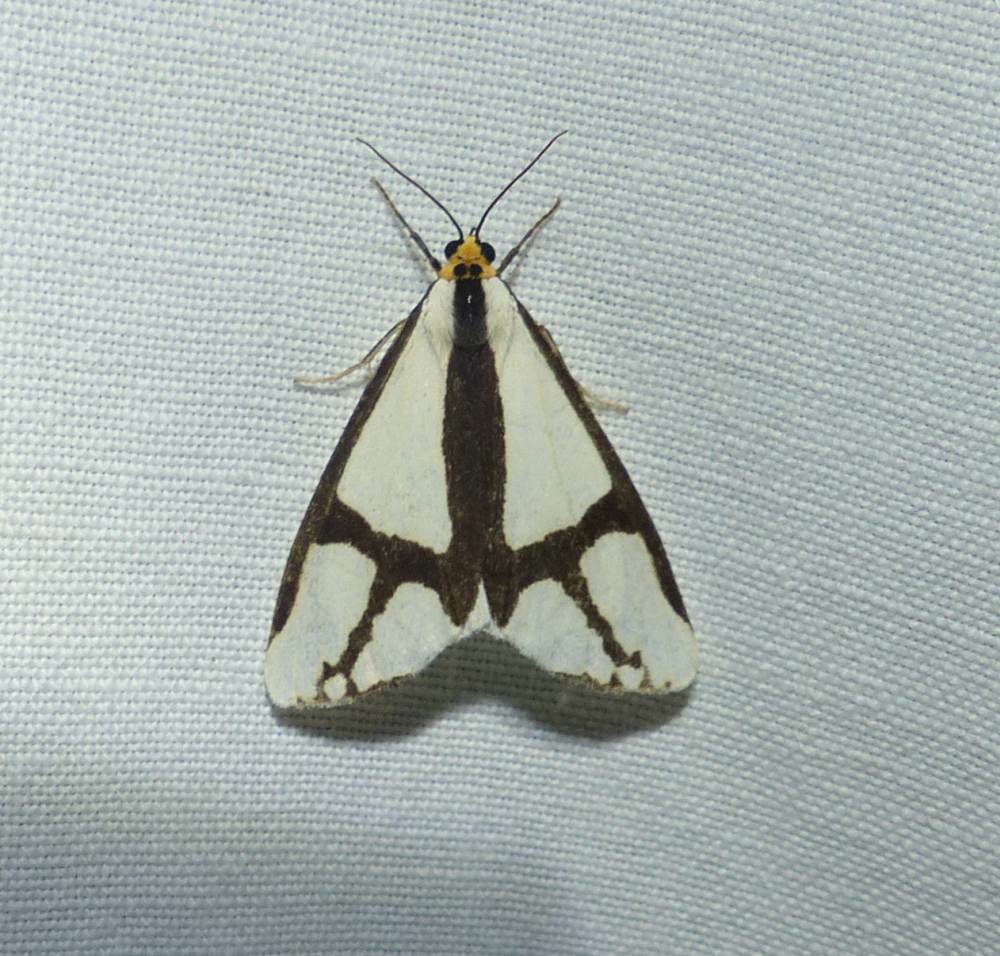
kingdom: Animalia
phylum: Arthropoda
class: Insecta
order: Lepidoptera
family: Erebidae
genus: Haploa
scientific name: Haploa contigua
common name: Neighbor moth
